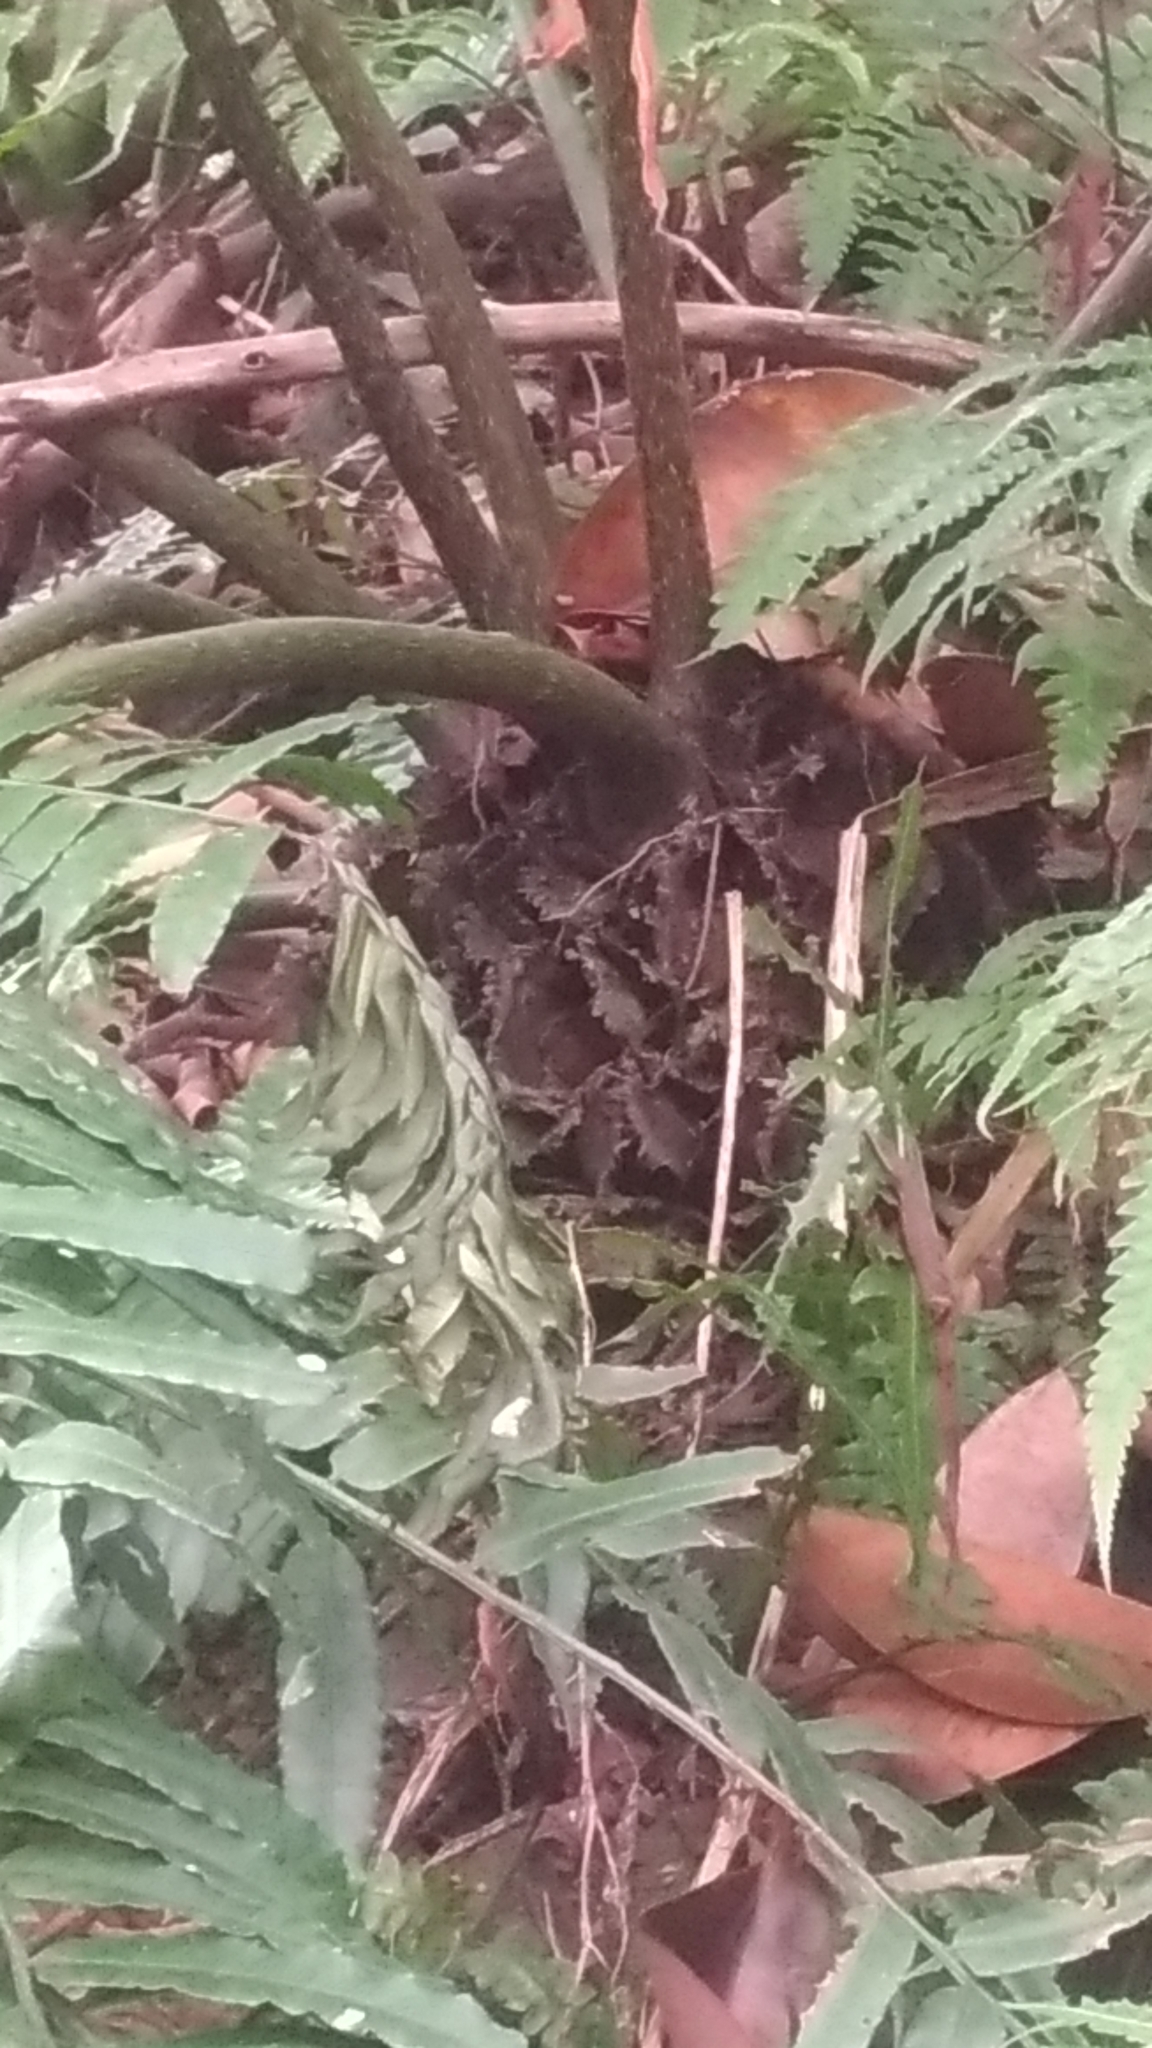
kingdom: Plantae
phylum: Tracheophyta
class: Polypodiopsida
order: Marattiales
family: Marattiaceae
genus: Angiopteris
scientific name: Angiopteris lygodiifolia
